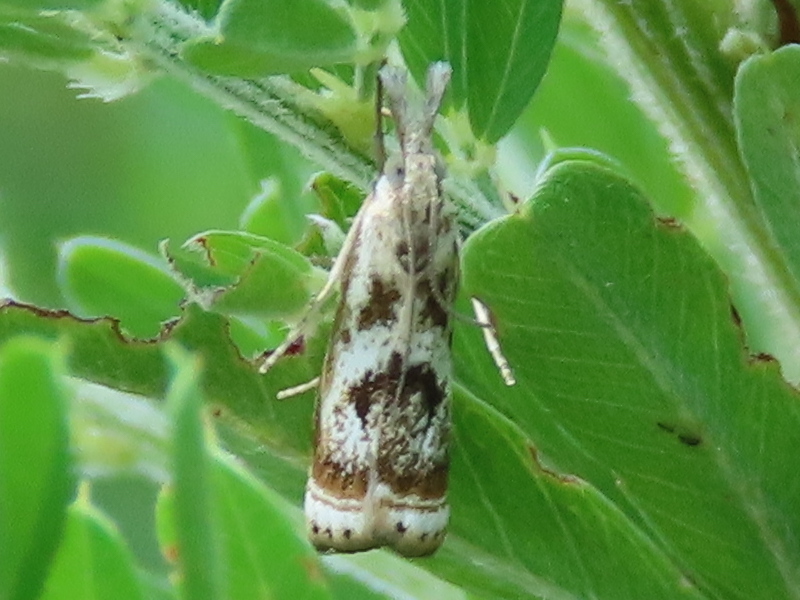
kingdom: Animalia
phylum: Arthropoda
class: Insecta
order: Lepidoptera
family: Crambidae
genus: Microcrambus
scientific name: Microcrambus elegans
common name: Elegant grass-veneer
